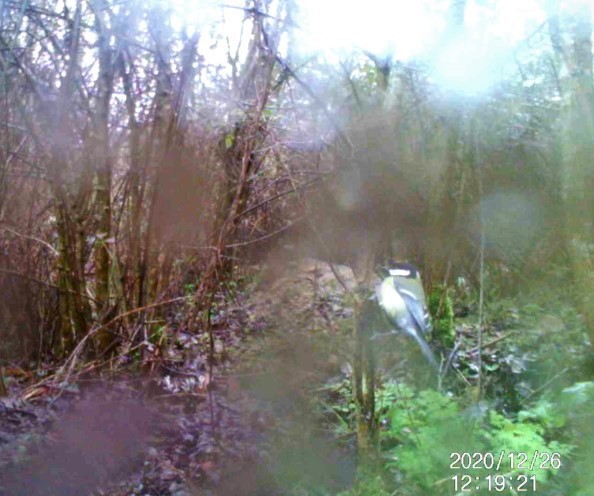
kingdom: Animalia
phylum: Chordata
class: Aves
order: Passeriformes
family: Paridae
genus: Parus
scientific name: Parus major
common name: Great tit
